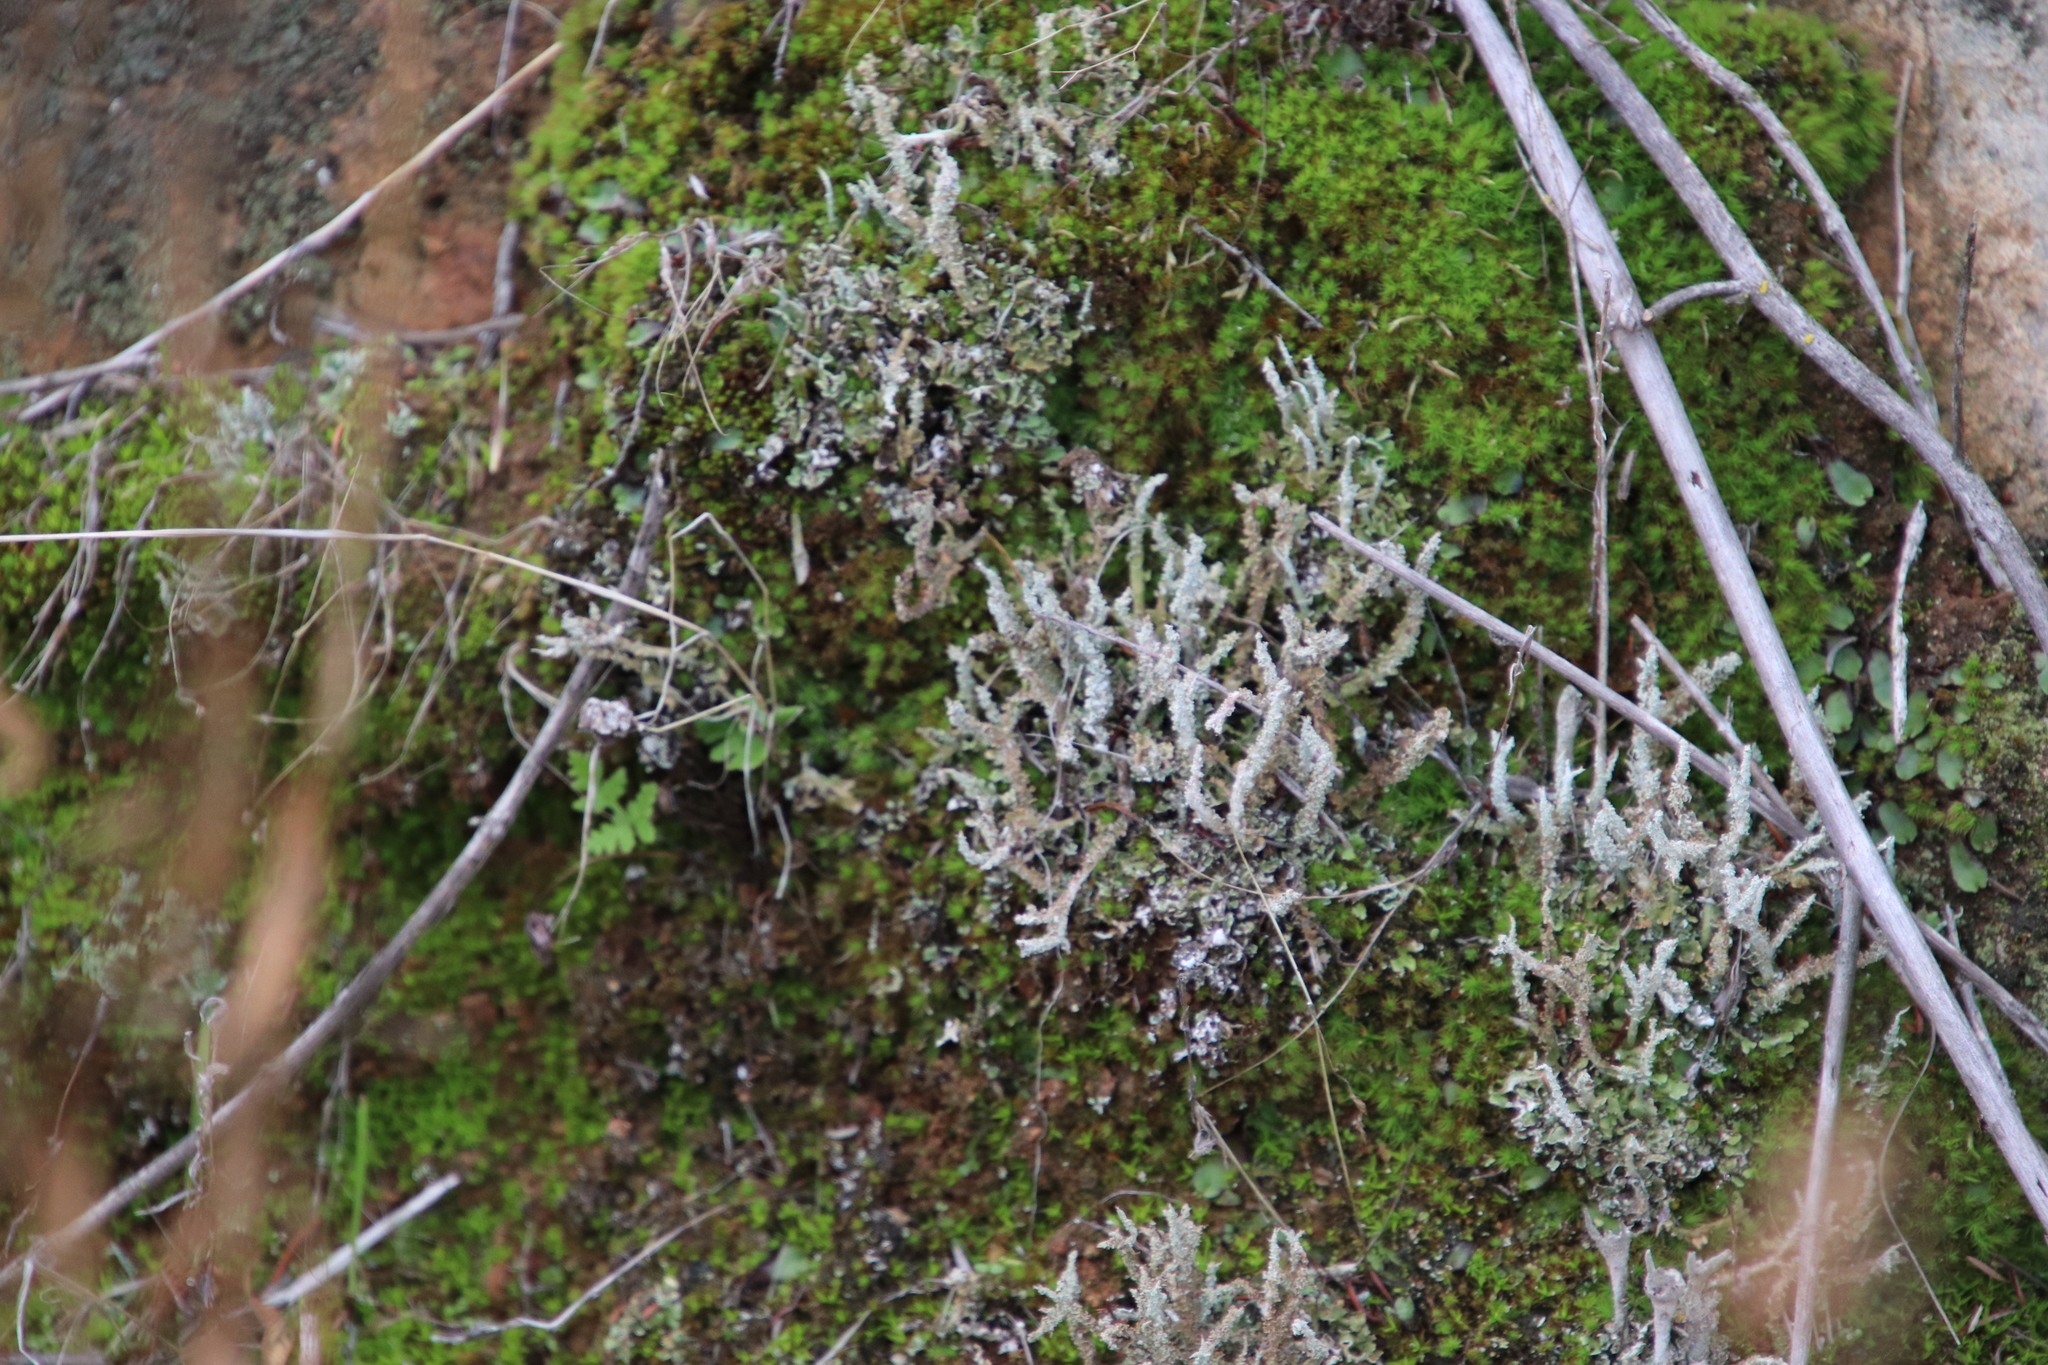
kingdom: Fungi
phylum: Ascomycota
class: Lecanoromycetes
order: Lecanorales
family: Cladoniaceae
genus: Cladonia
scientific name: Cladonia scabriuscula
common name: Mealy forked clad lichen
